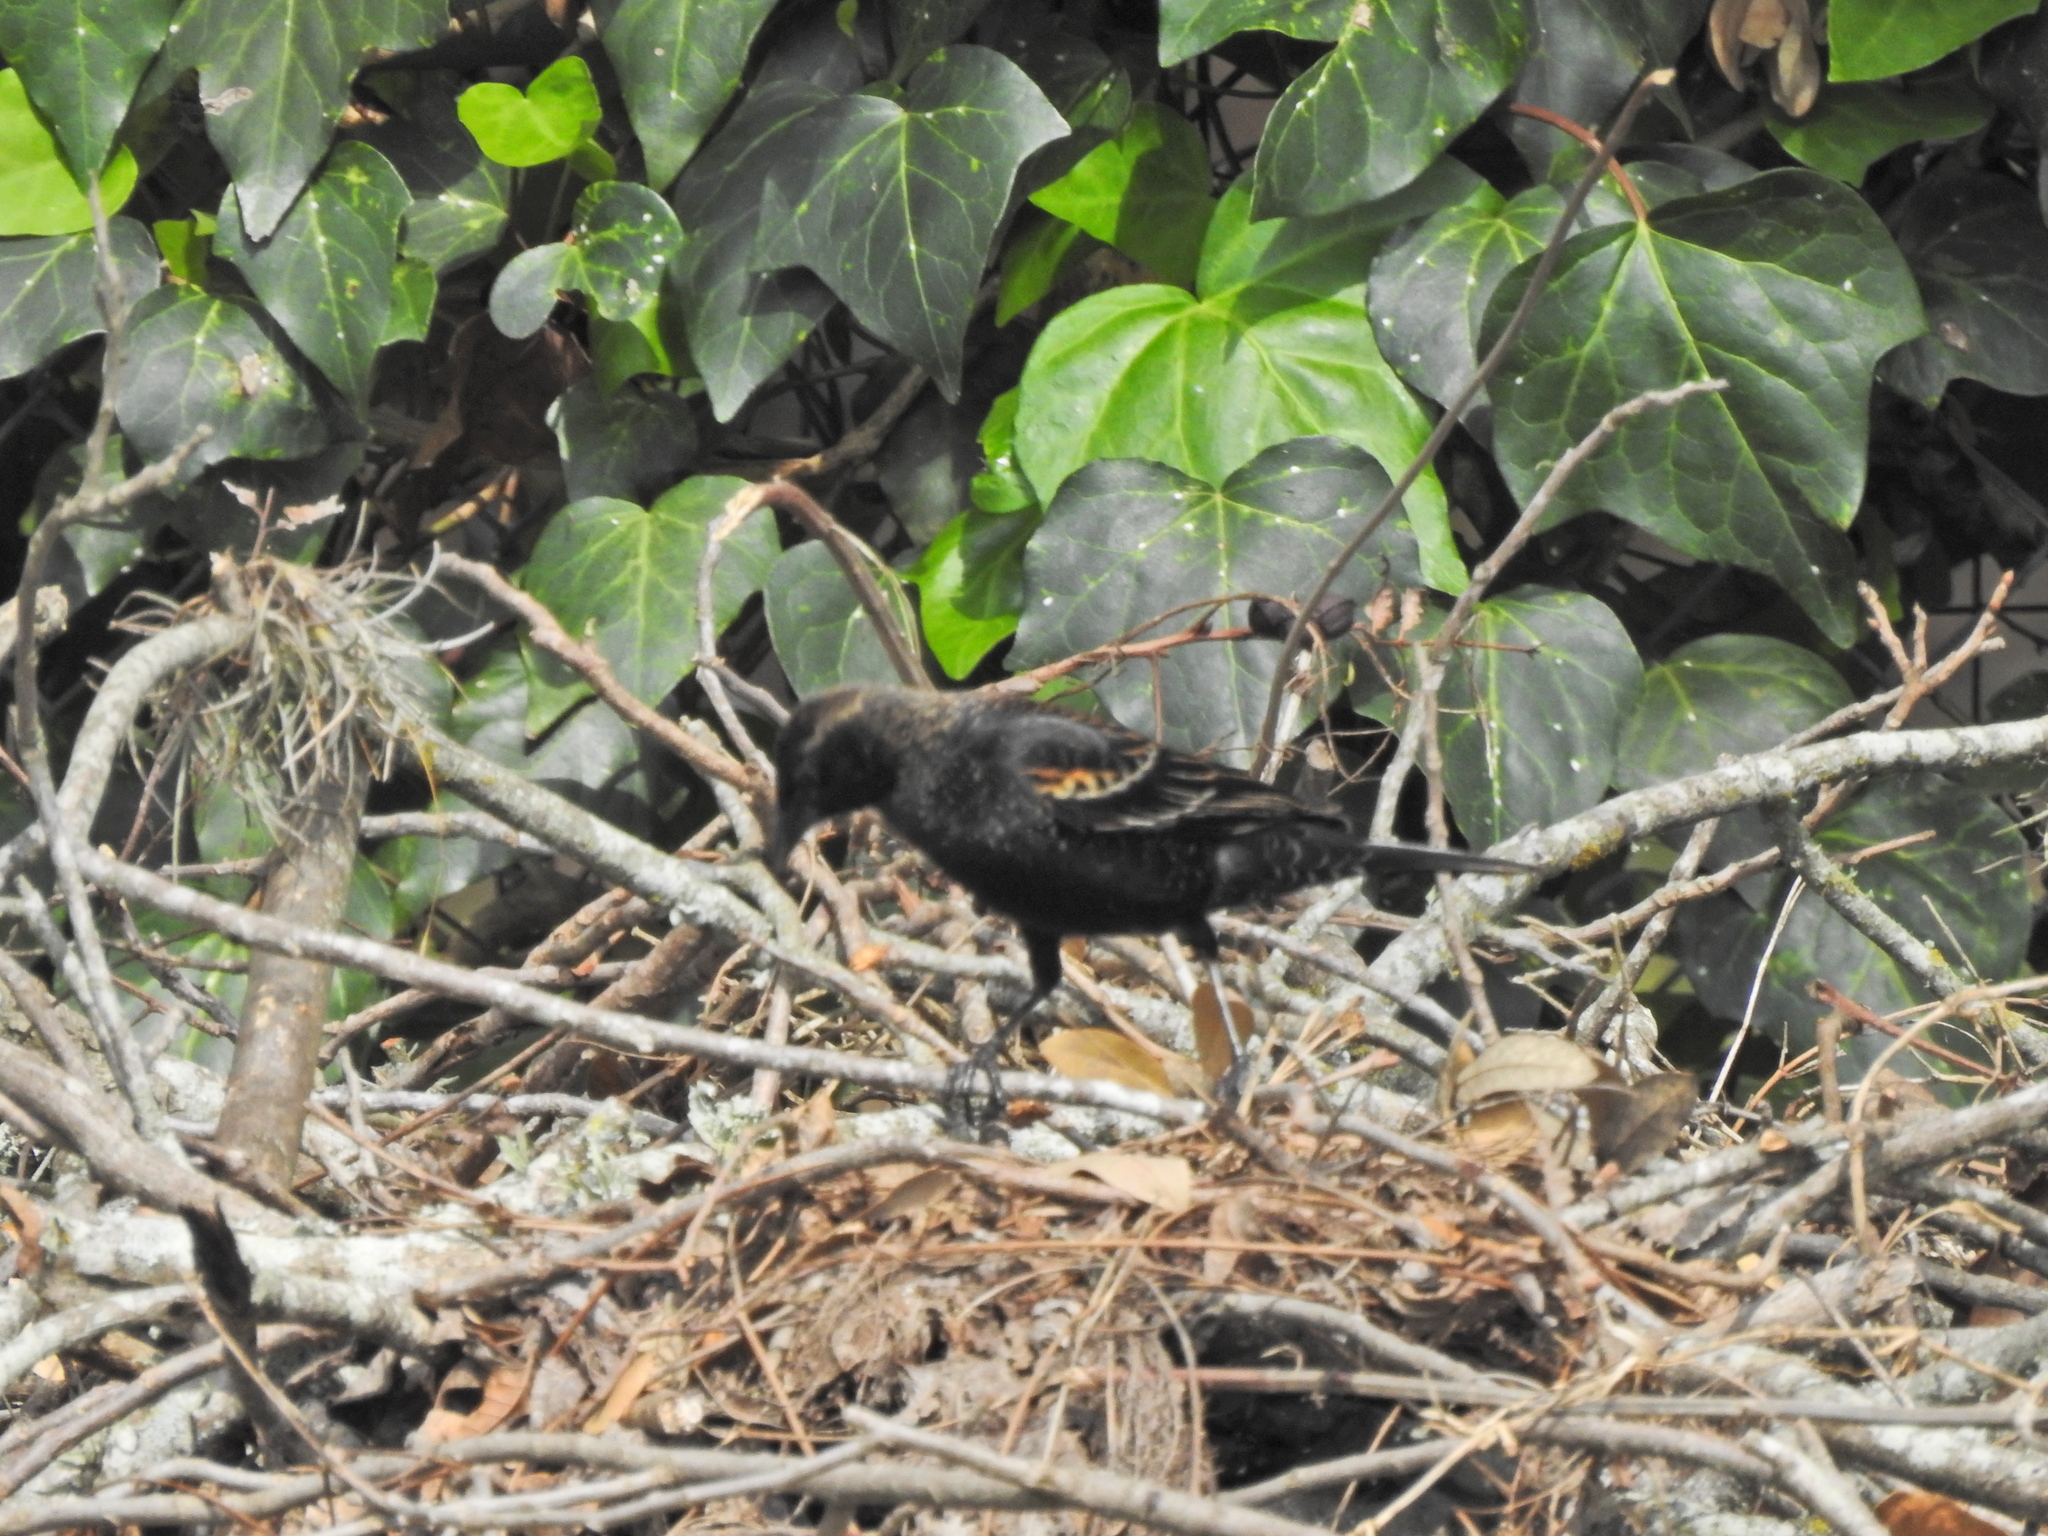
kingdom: Animalia
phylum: Chordata
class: Aves
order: Passeriformes
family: Icteridae
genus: Agelaius
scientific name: Agelaius phoeniceus
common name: Red-winged blackbird
